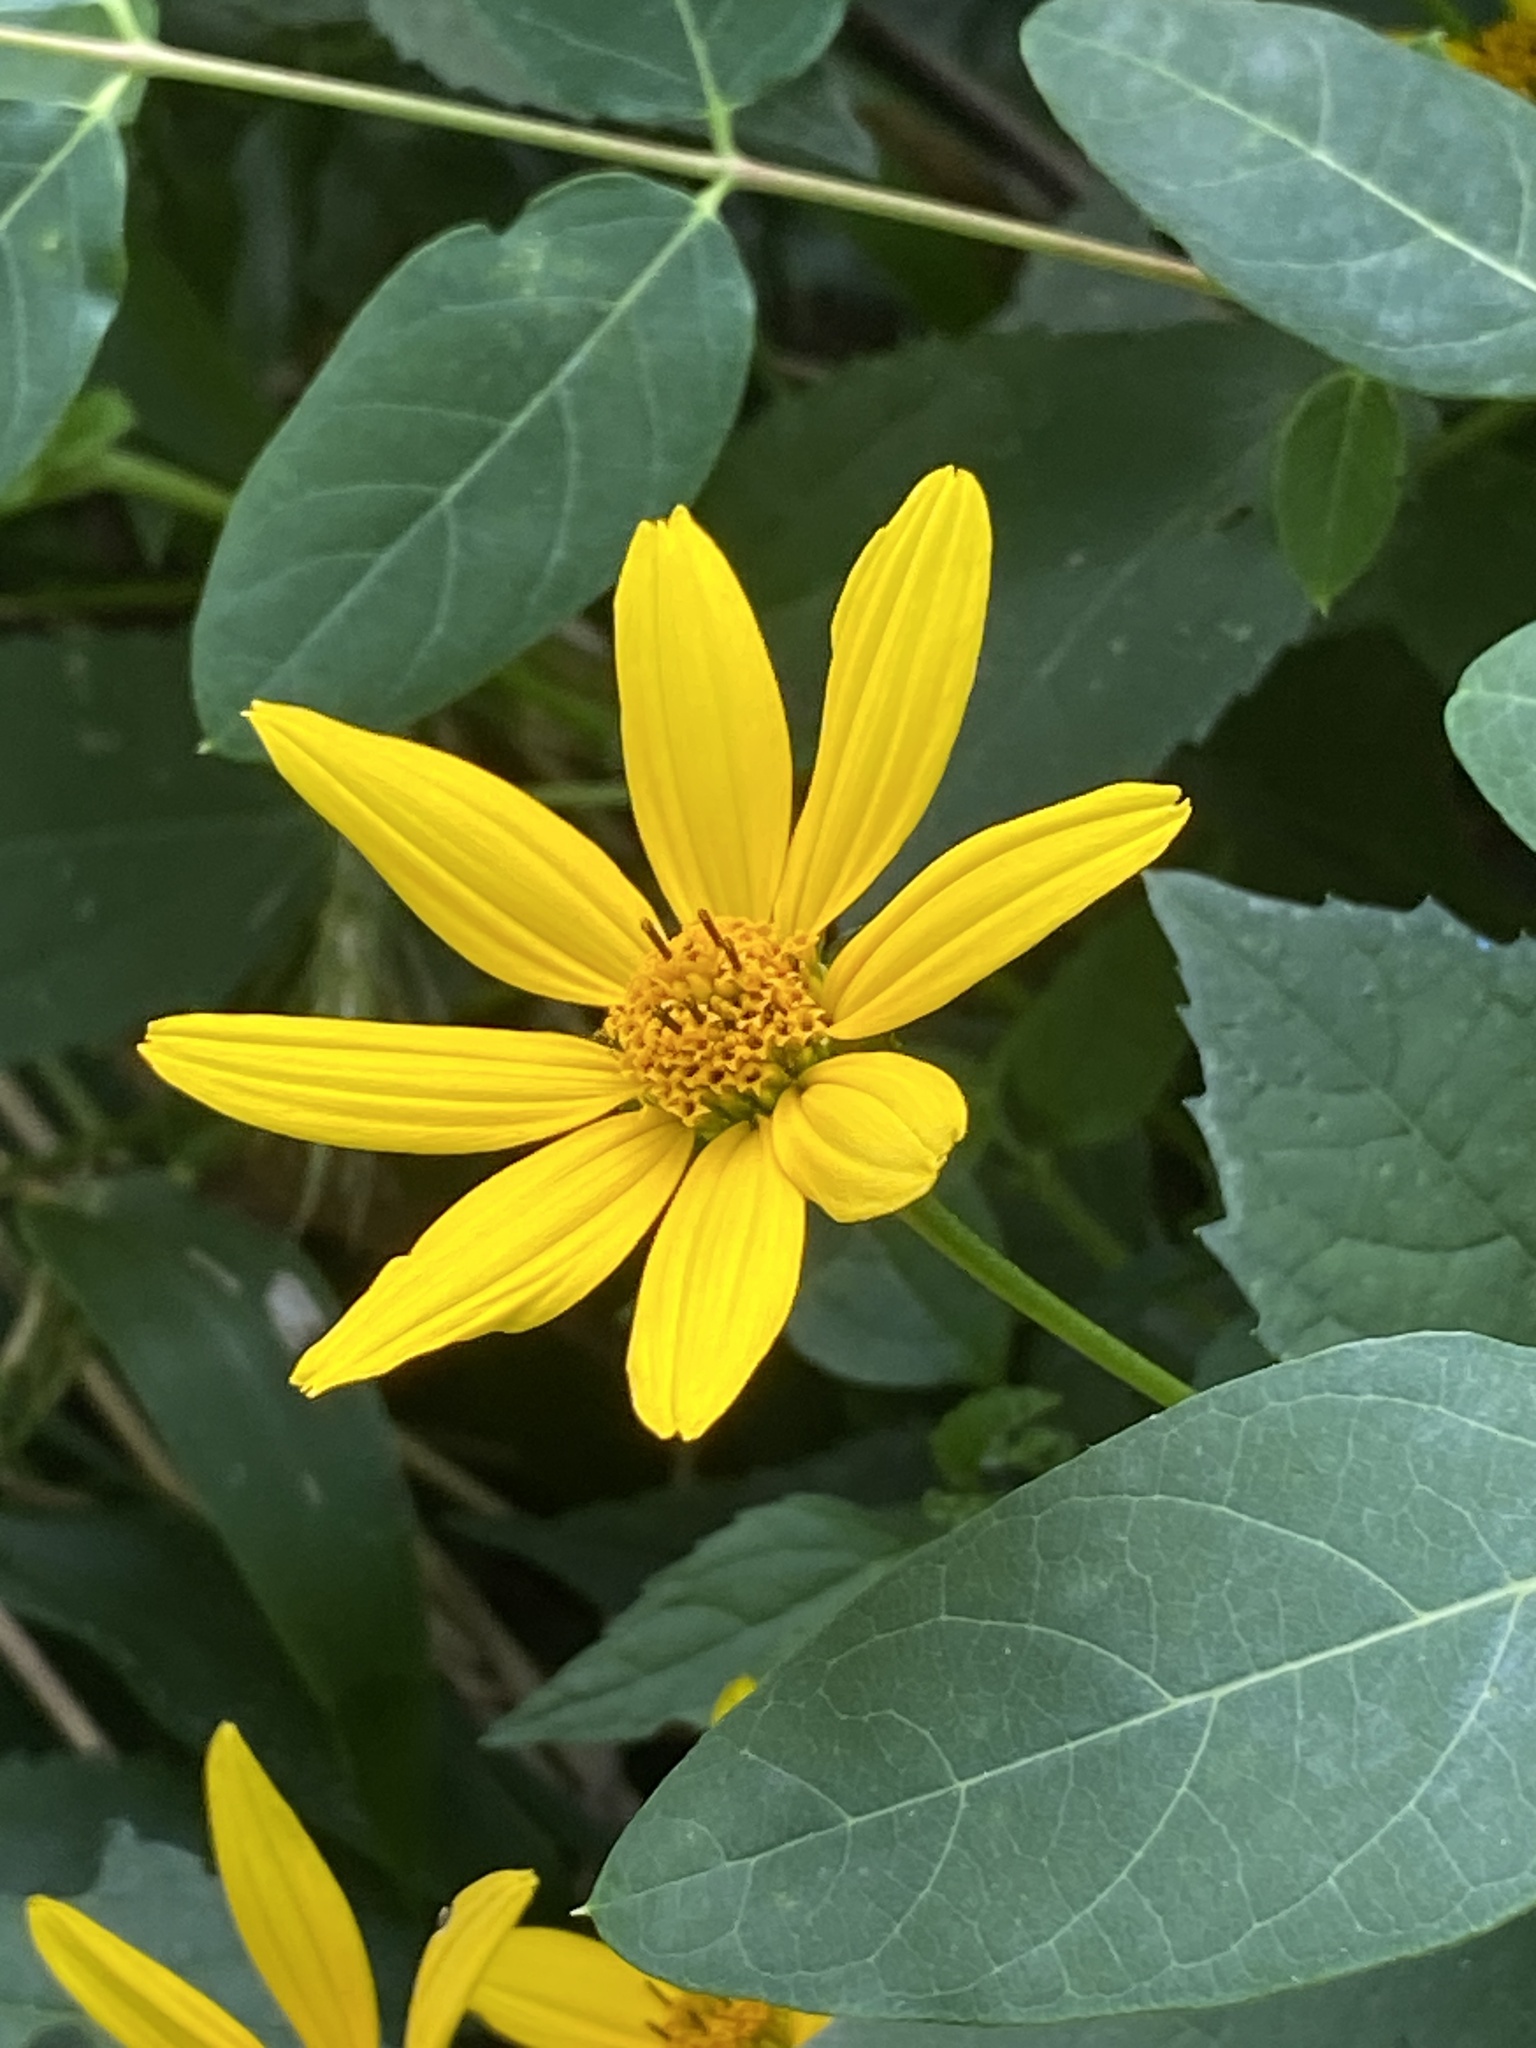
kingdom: Plantae
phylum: Tracheophyta
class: Magnoliopsida
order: Asterales
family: Asteraceae
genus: Heliopsis
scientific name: Heliopsis helianthoides
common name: False sunflower
